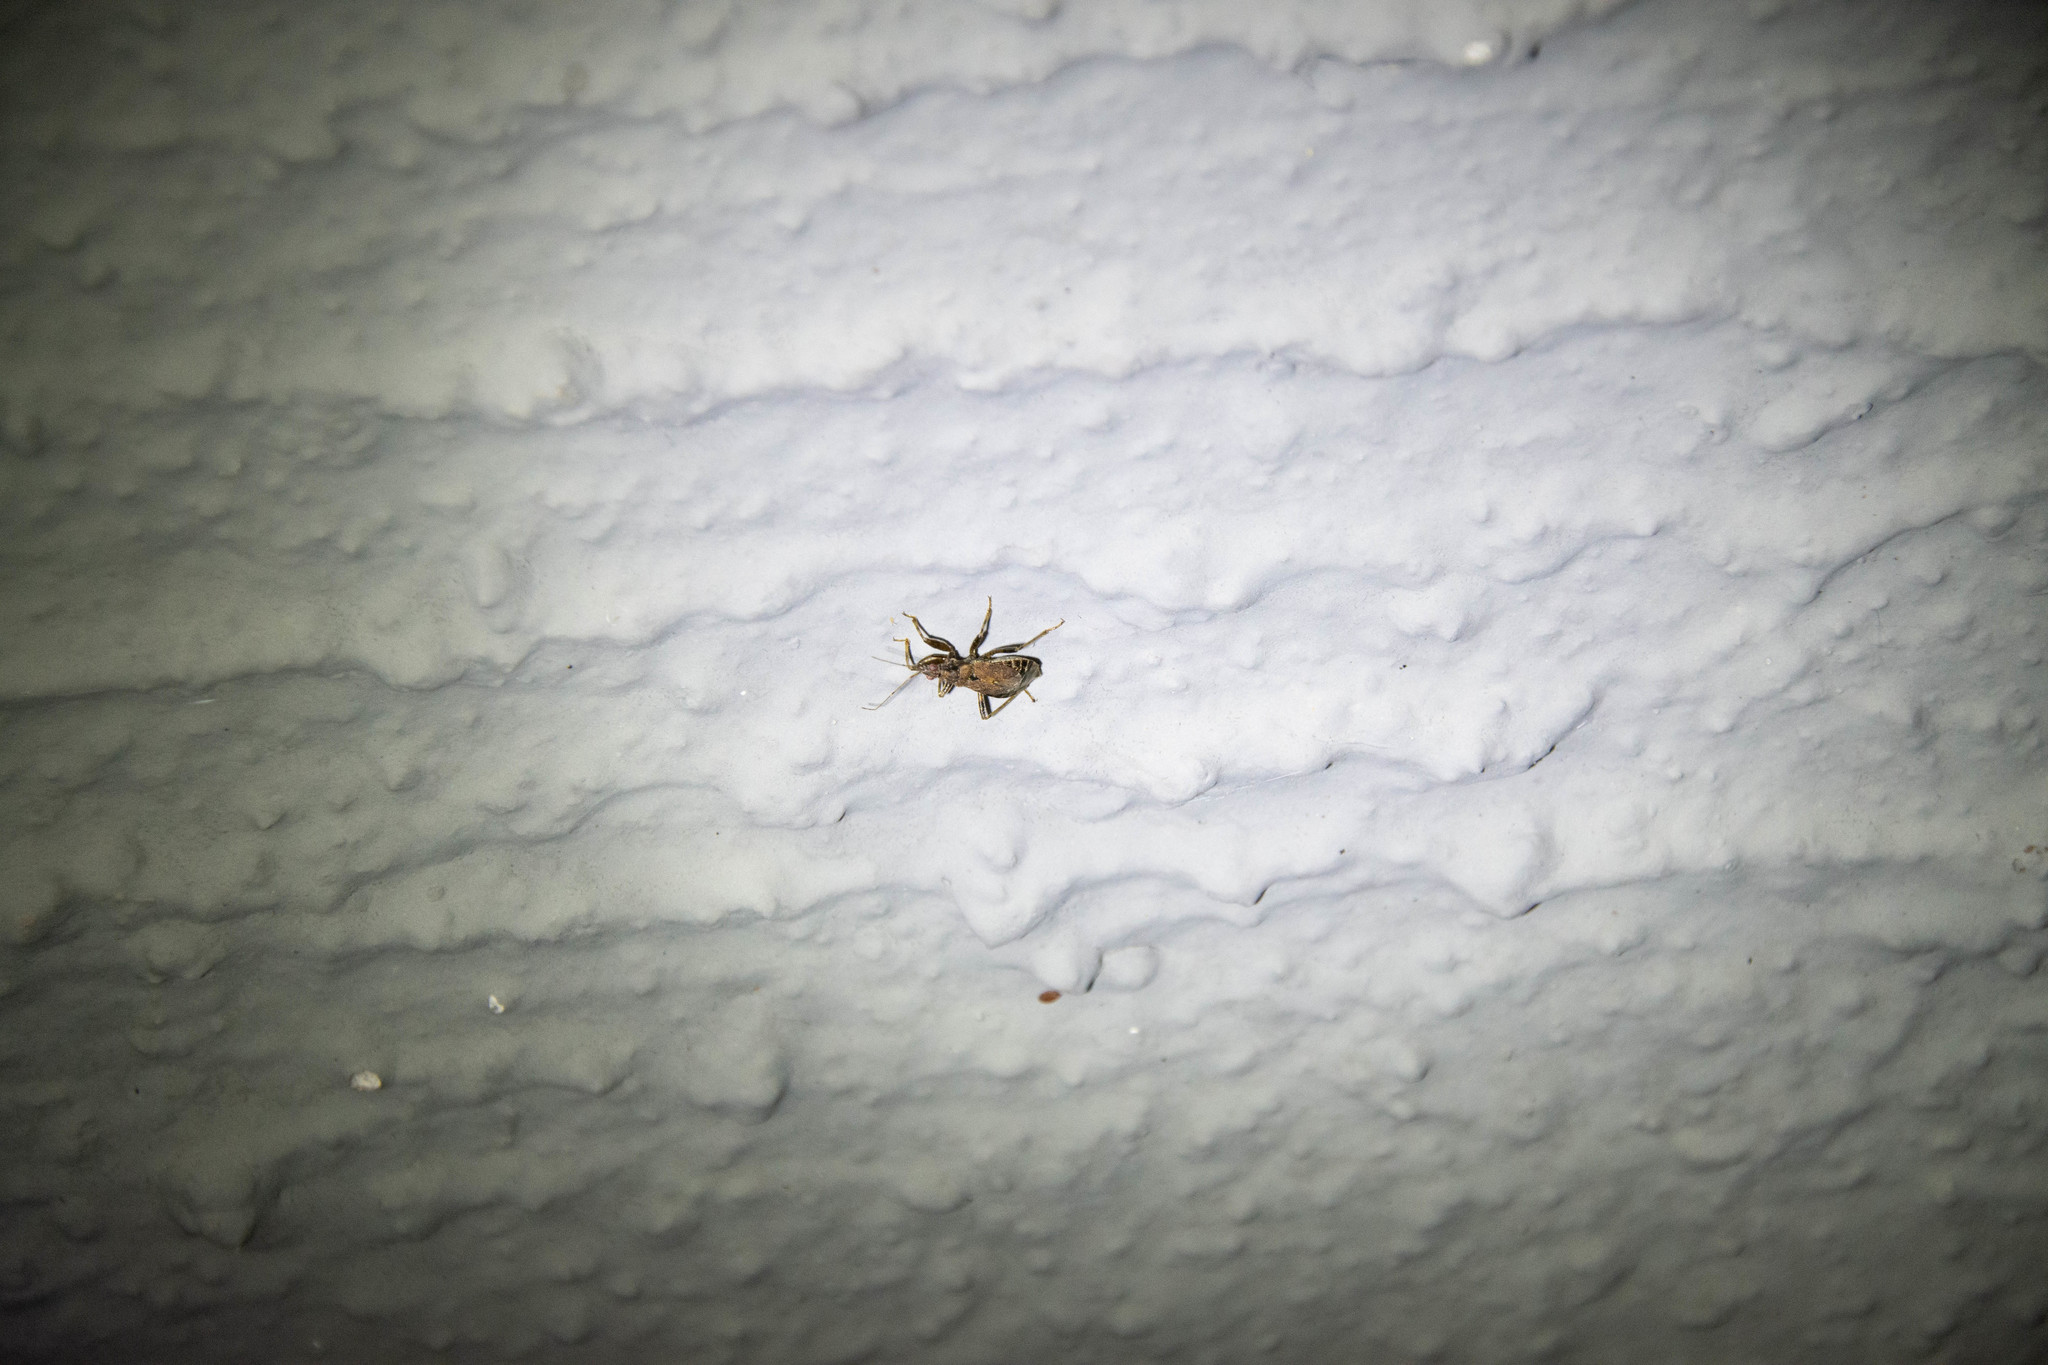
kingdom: Animalia
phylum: Arthropoda
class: Insecta
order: Hemiptera
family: Nabidae
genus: Himacerus
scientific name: Himacerus mirmicoides
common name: Ant damsel bug
